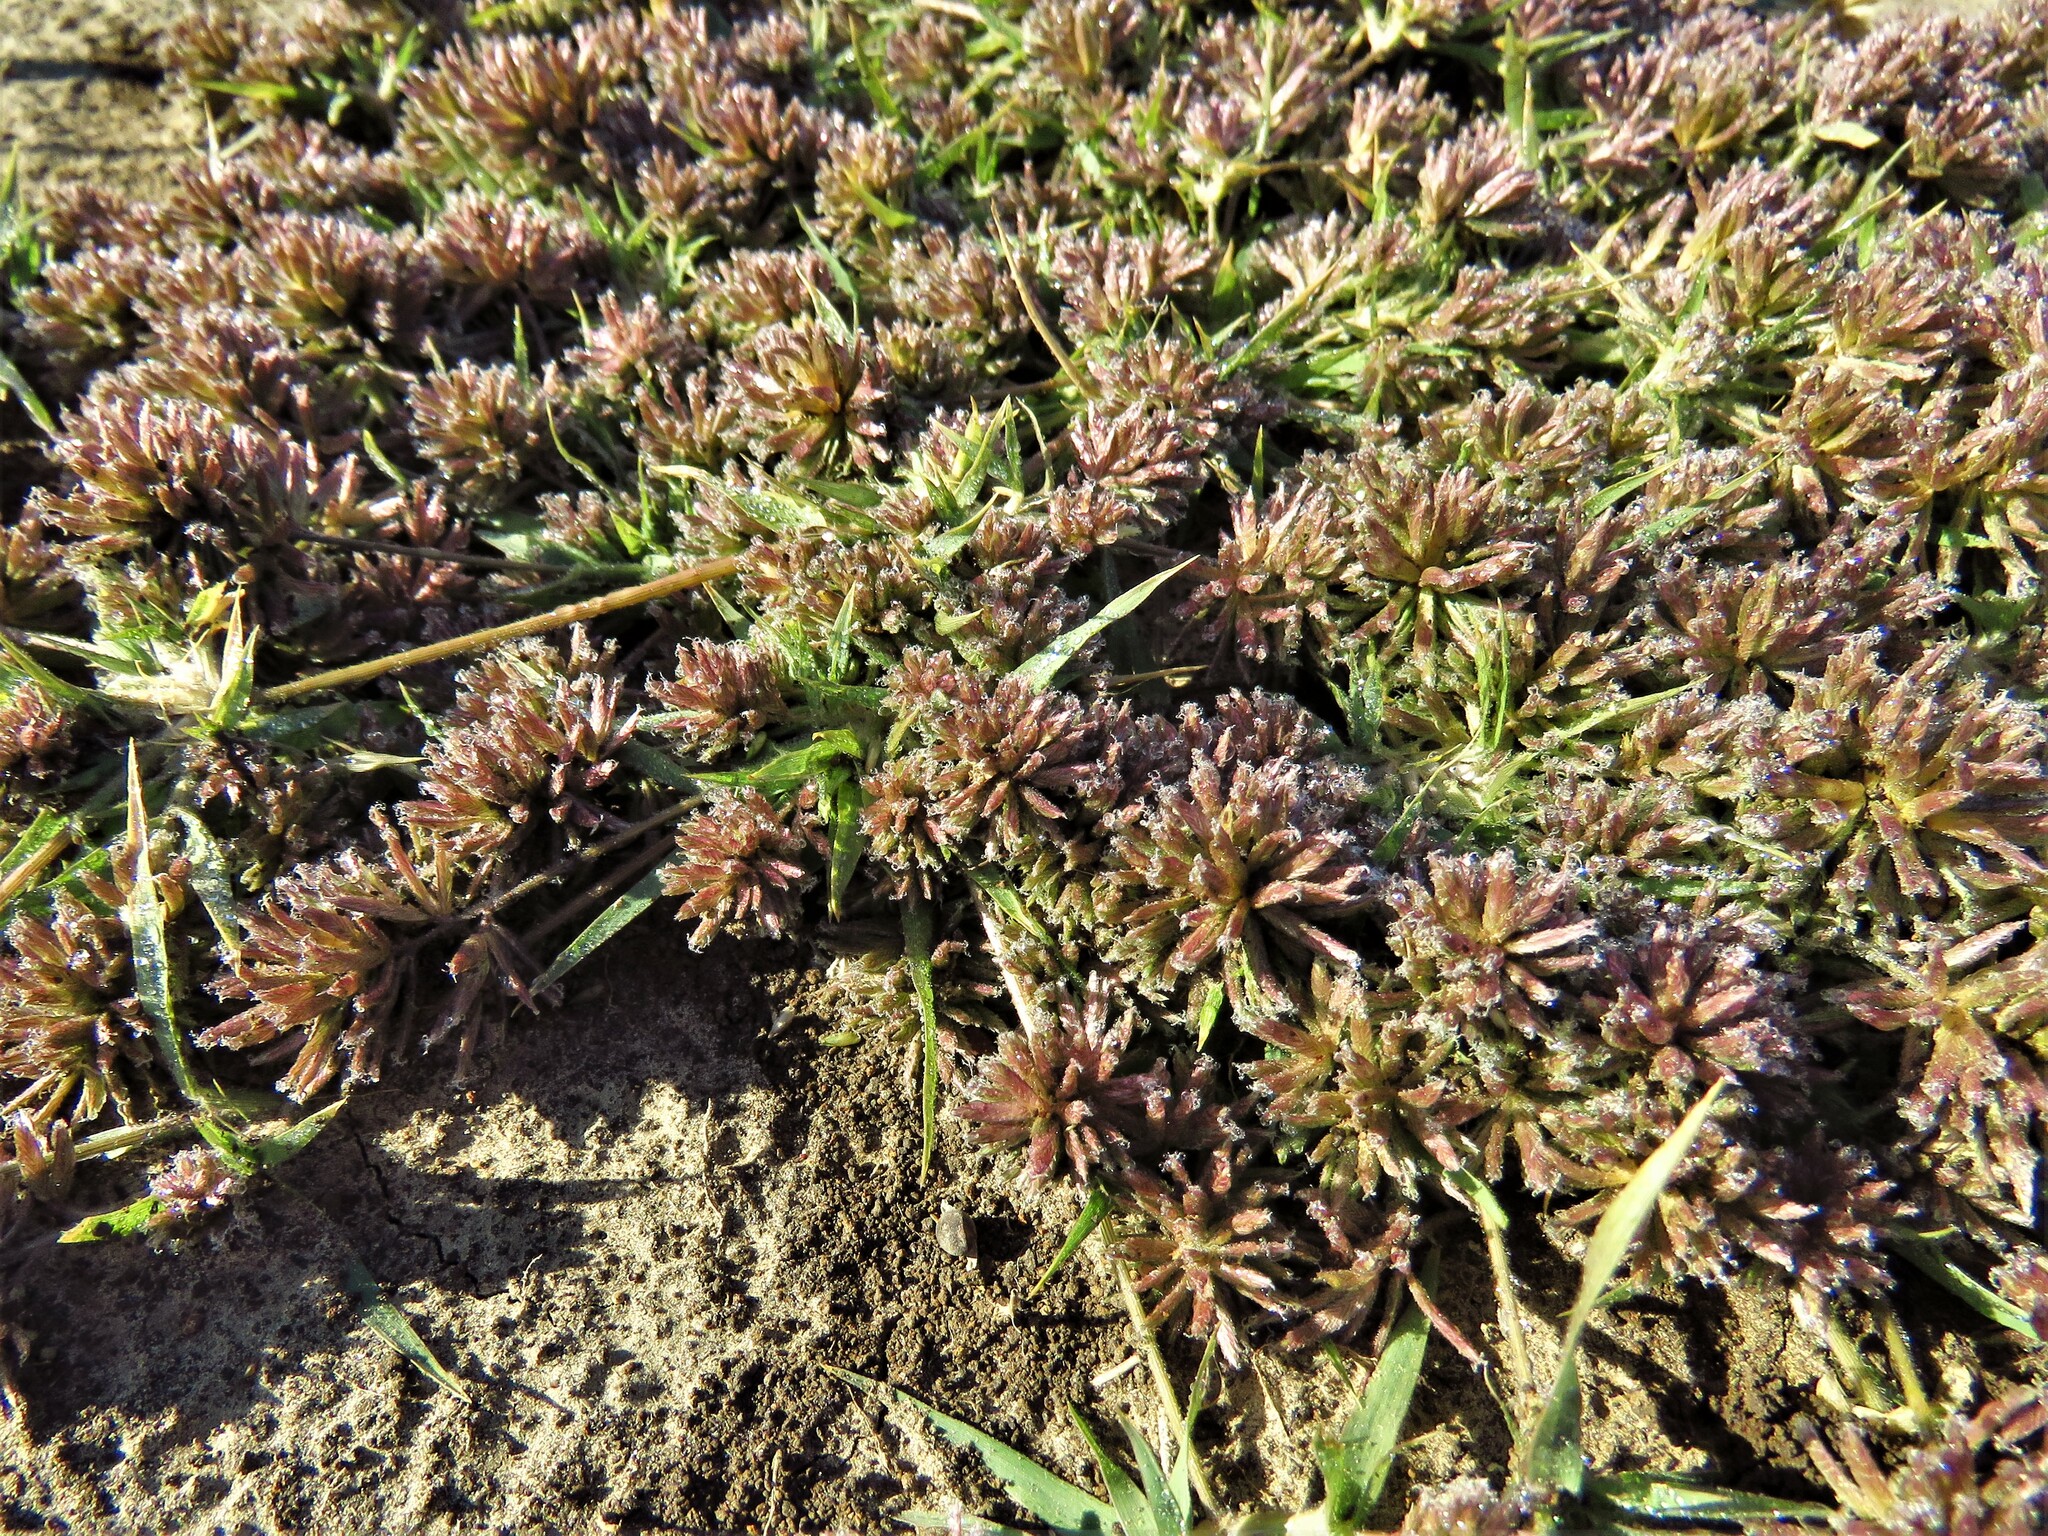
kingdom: Plantae
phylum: Tracheophyta
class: Liliopsida
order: Poales
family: Poaceae
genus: Eragrostis
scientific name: Eragrostis reptans
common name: Creeping love grass
